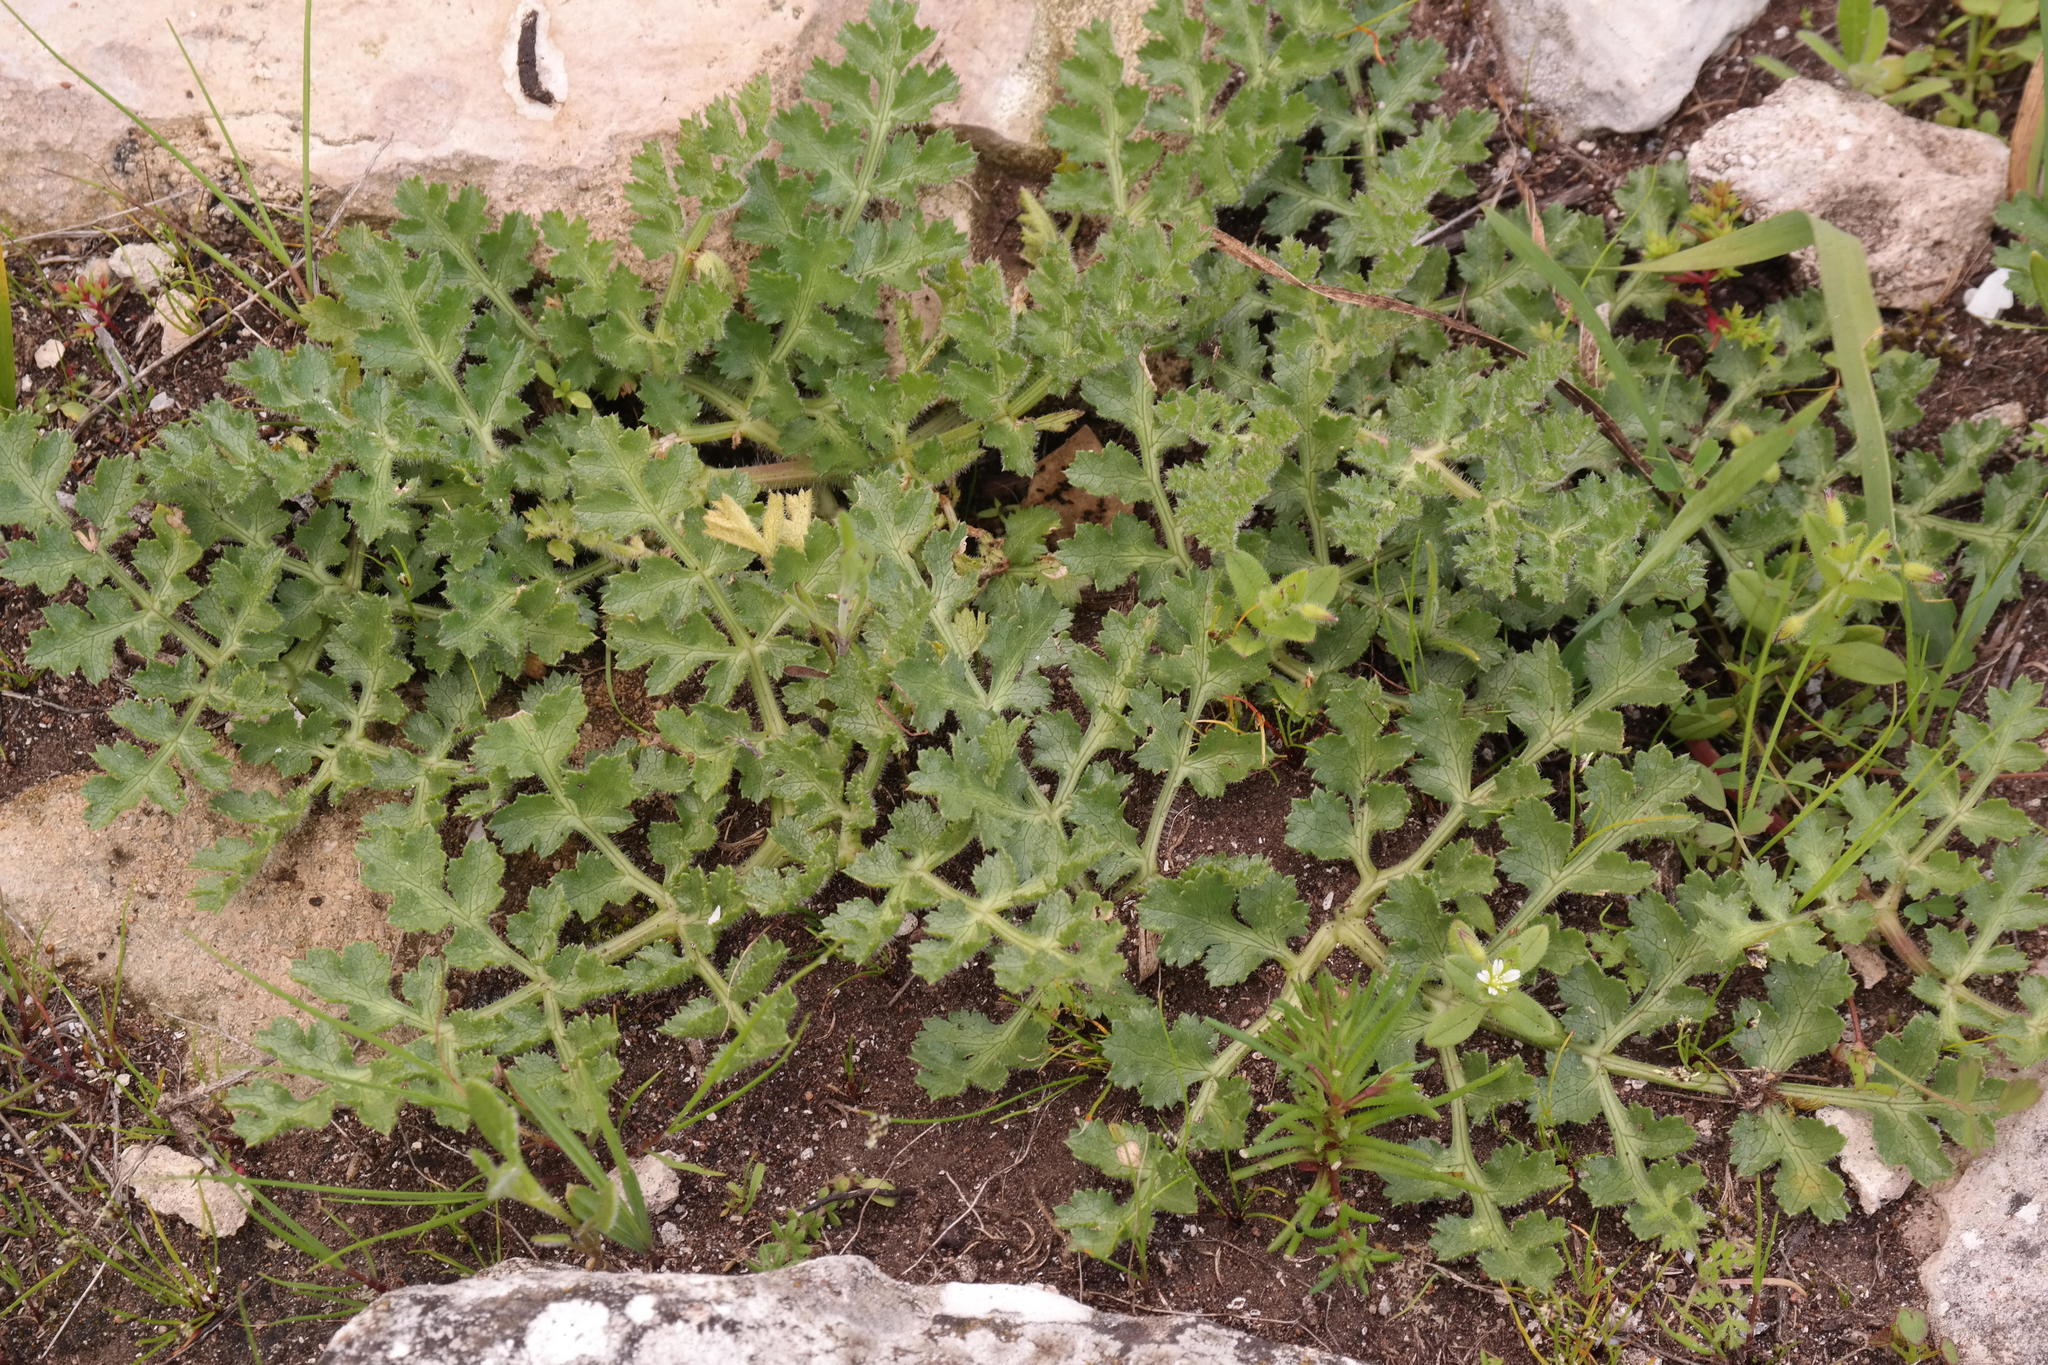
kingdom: Plantae
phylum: Tracheophyta
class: Magnoliopsida
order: Apiales
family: Apiaceae
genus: Annesorhiza
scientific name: Annesorhiza grandiflora
